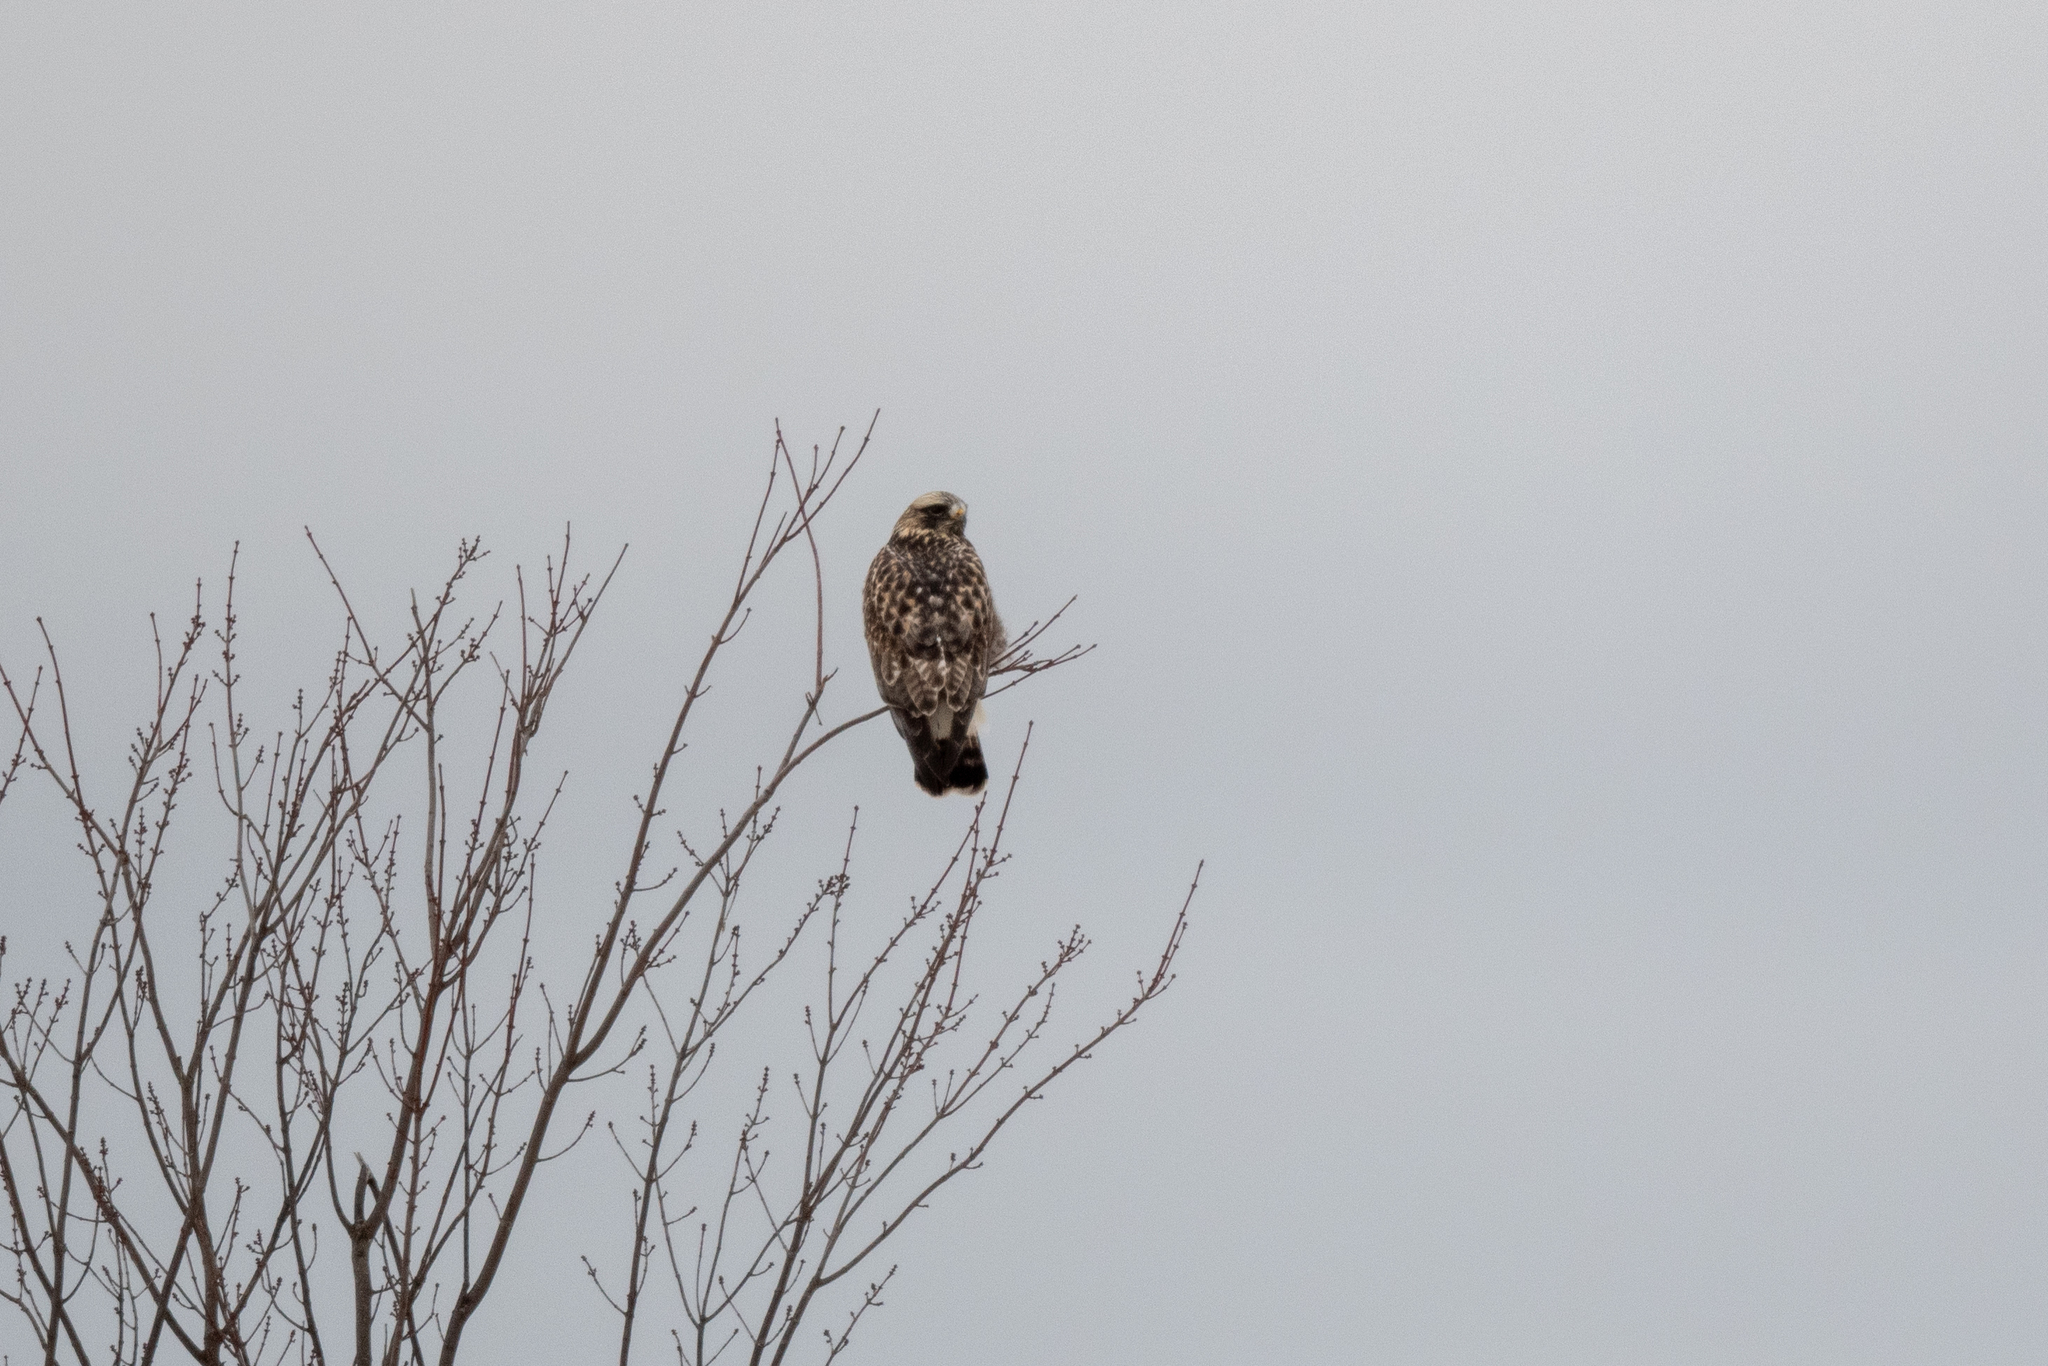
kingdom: Animalia
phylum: Chordata
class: Aves
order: Accipitriformes
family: Accipitridae
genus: Buteo
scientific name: Buteo lagopus
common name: Rough-legged buzzard
